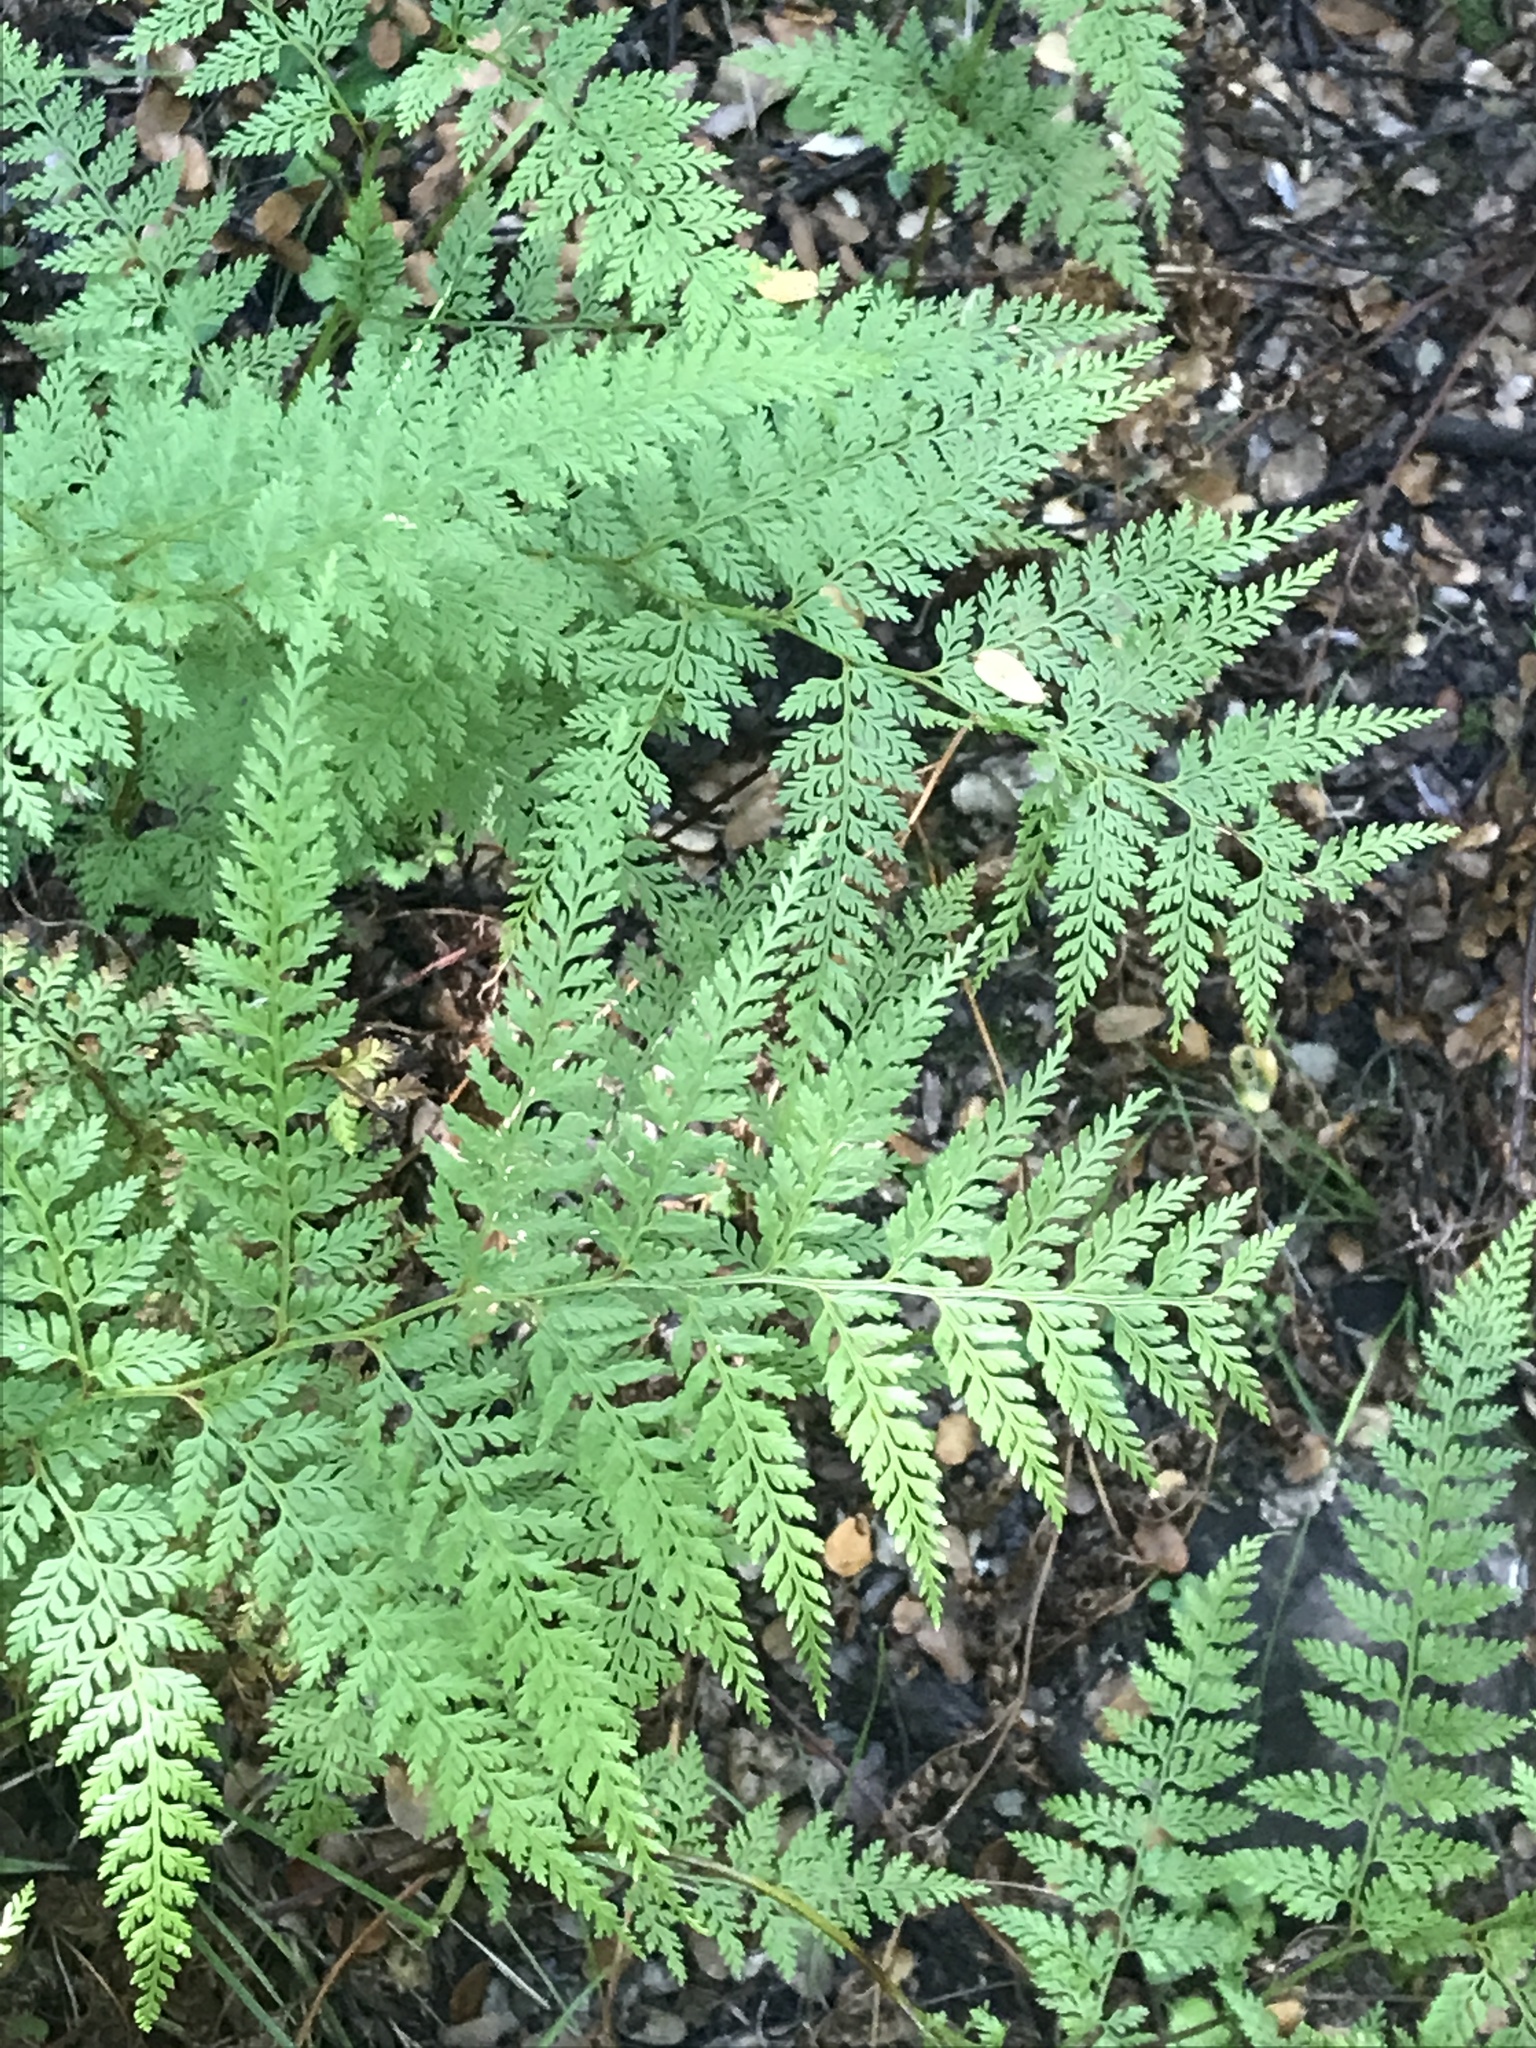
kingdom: Plantae
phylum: Tracheophyta
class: Polypodiopsida
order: Polypodiales
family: Dennstaedtiaceae
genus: Paesia
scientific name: Paesia scaberula
